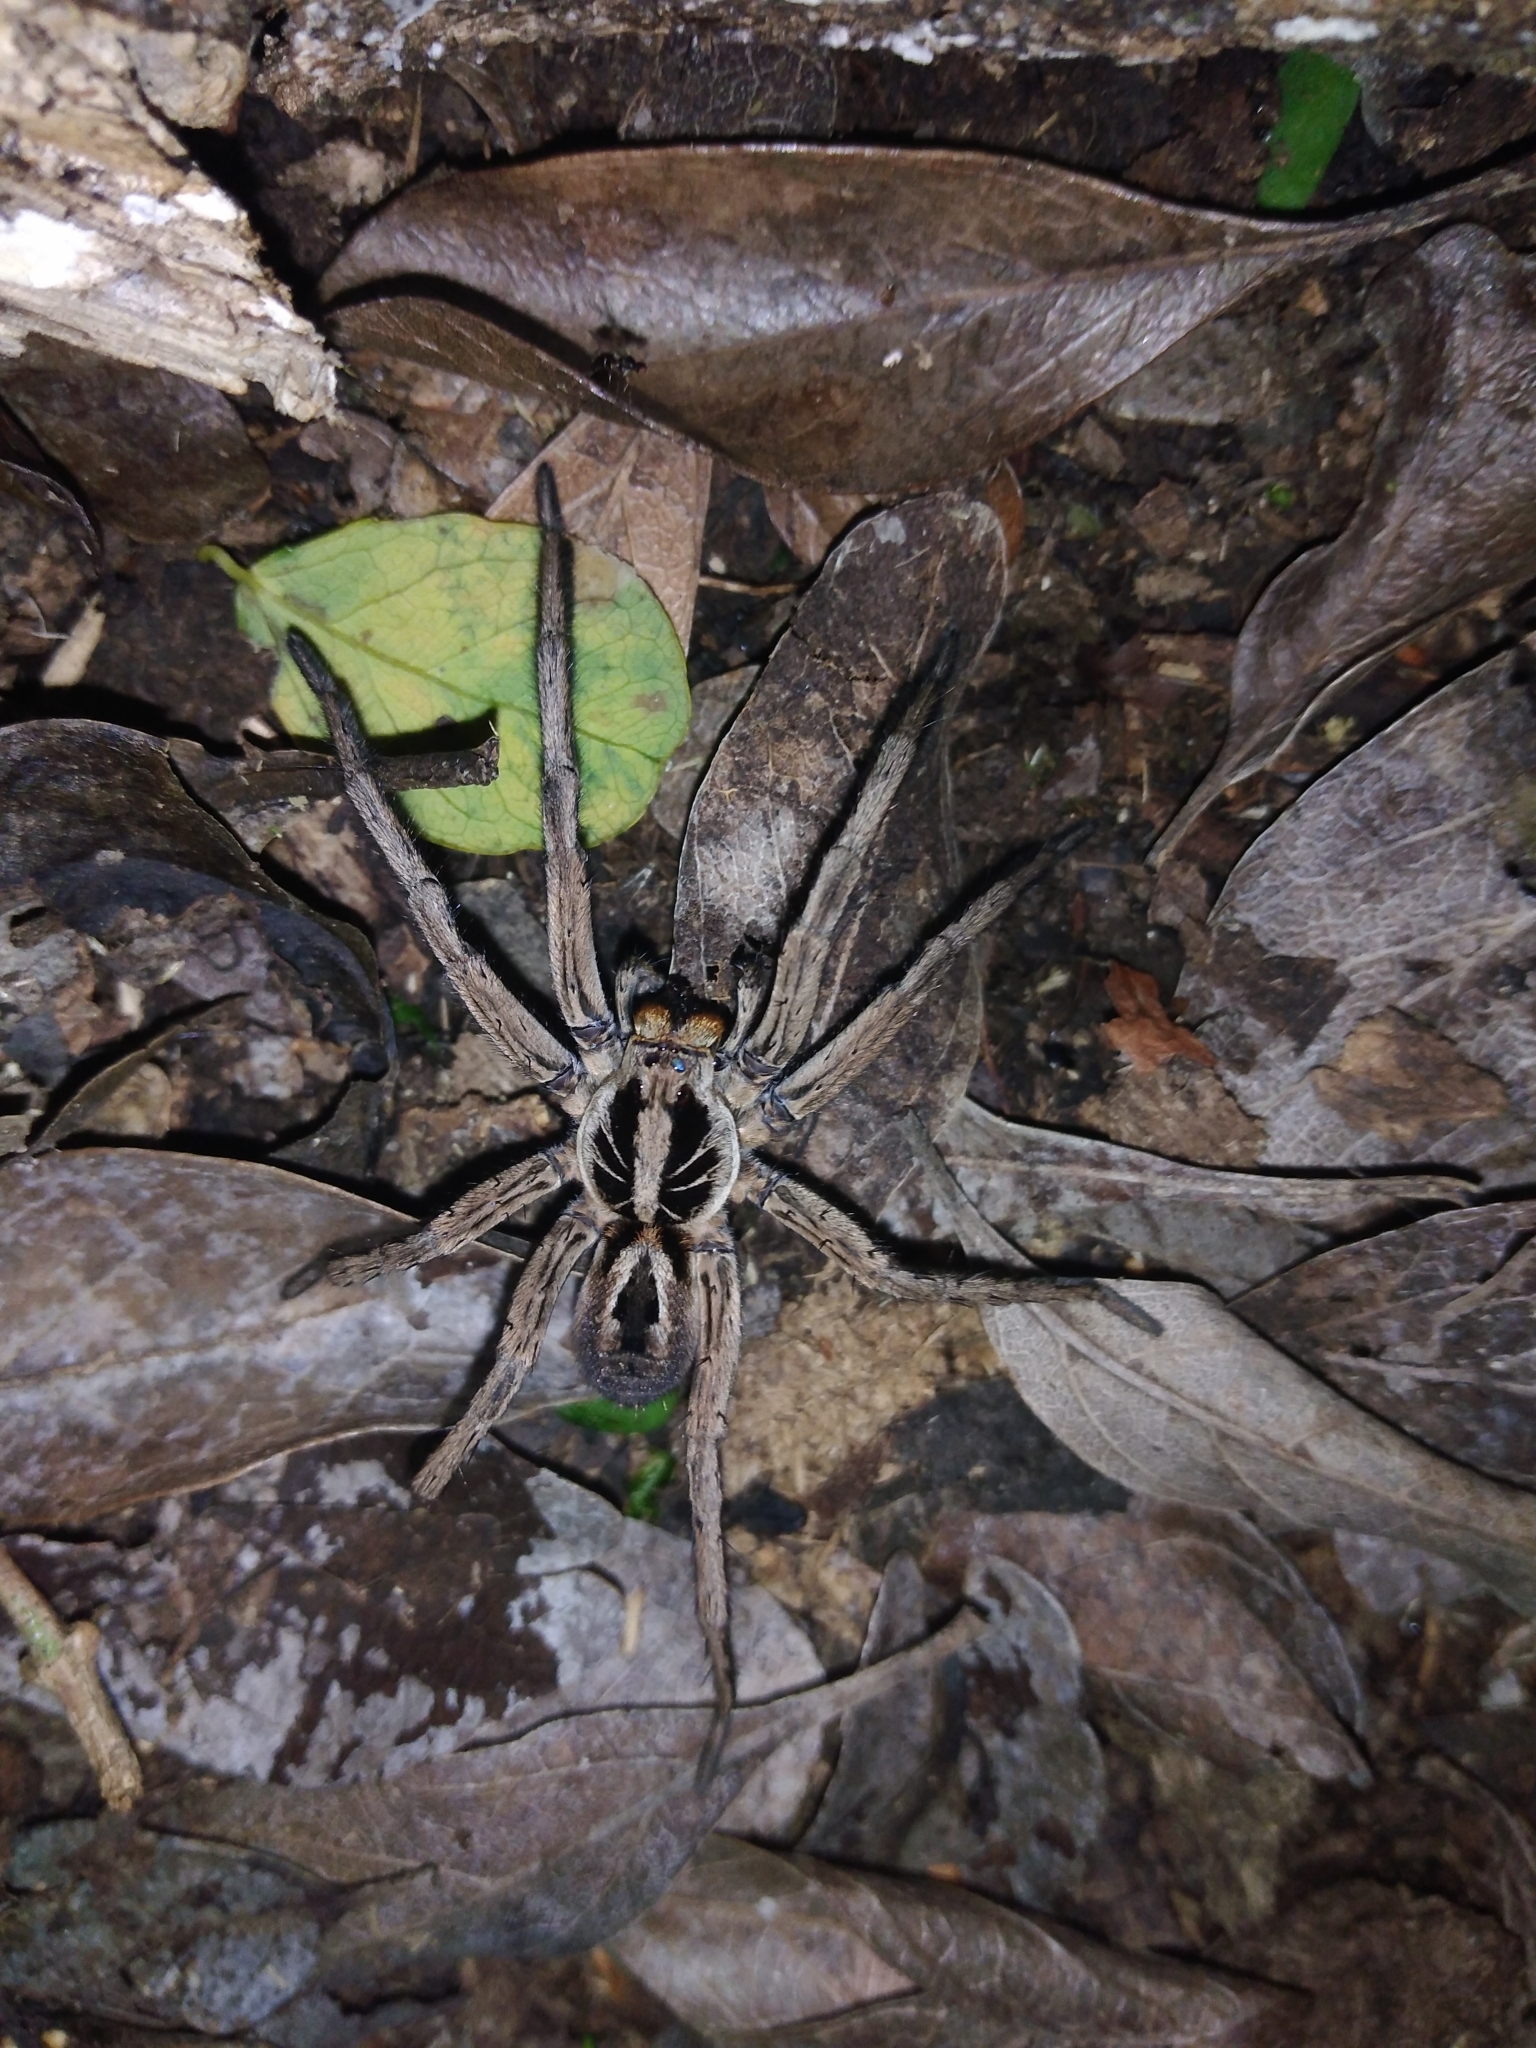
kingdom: Animalia
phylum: Arthropoda
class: Arachnida
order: Araneae
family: Lycosidae
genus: Lycosa
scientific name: Lycosa erythrognatha
